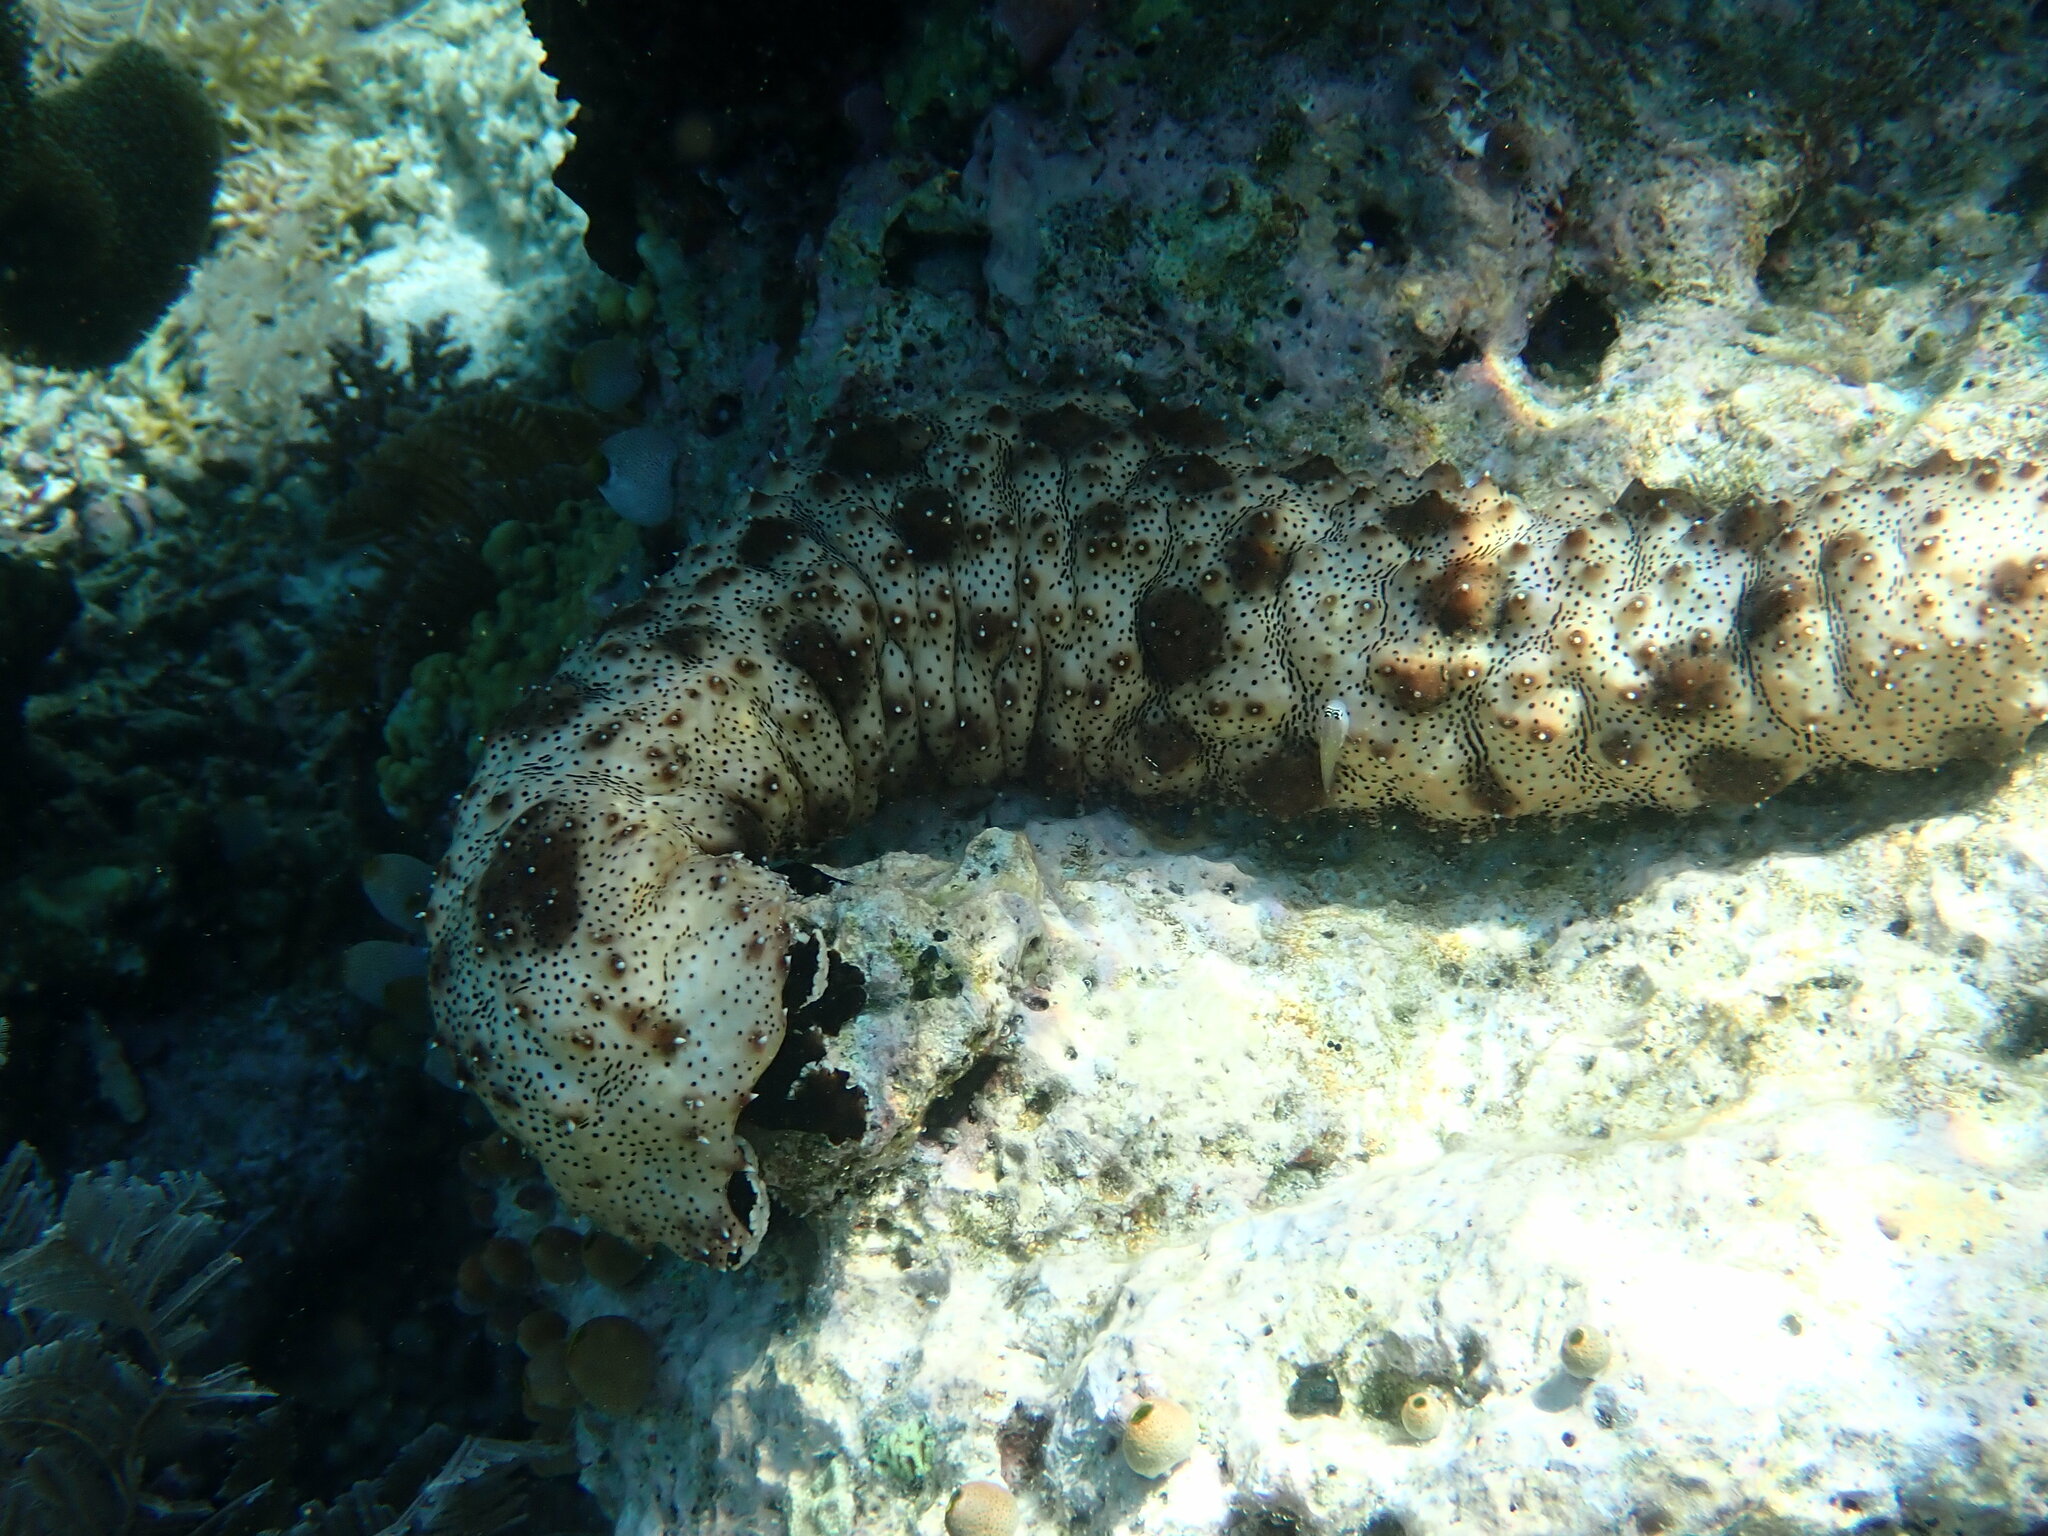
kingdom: Animalia
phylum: Echinodermata
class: Holothuroidea
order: Holothuriida
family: Holothuriidae
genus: Pearsonothuria
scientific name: Pearsonothuria graeffei
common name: Blackspotted sea cucumber
